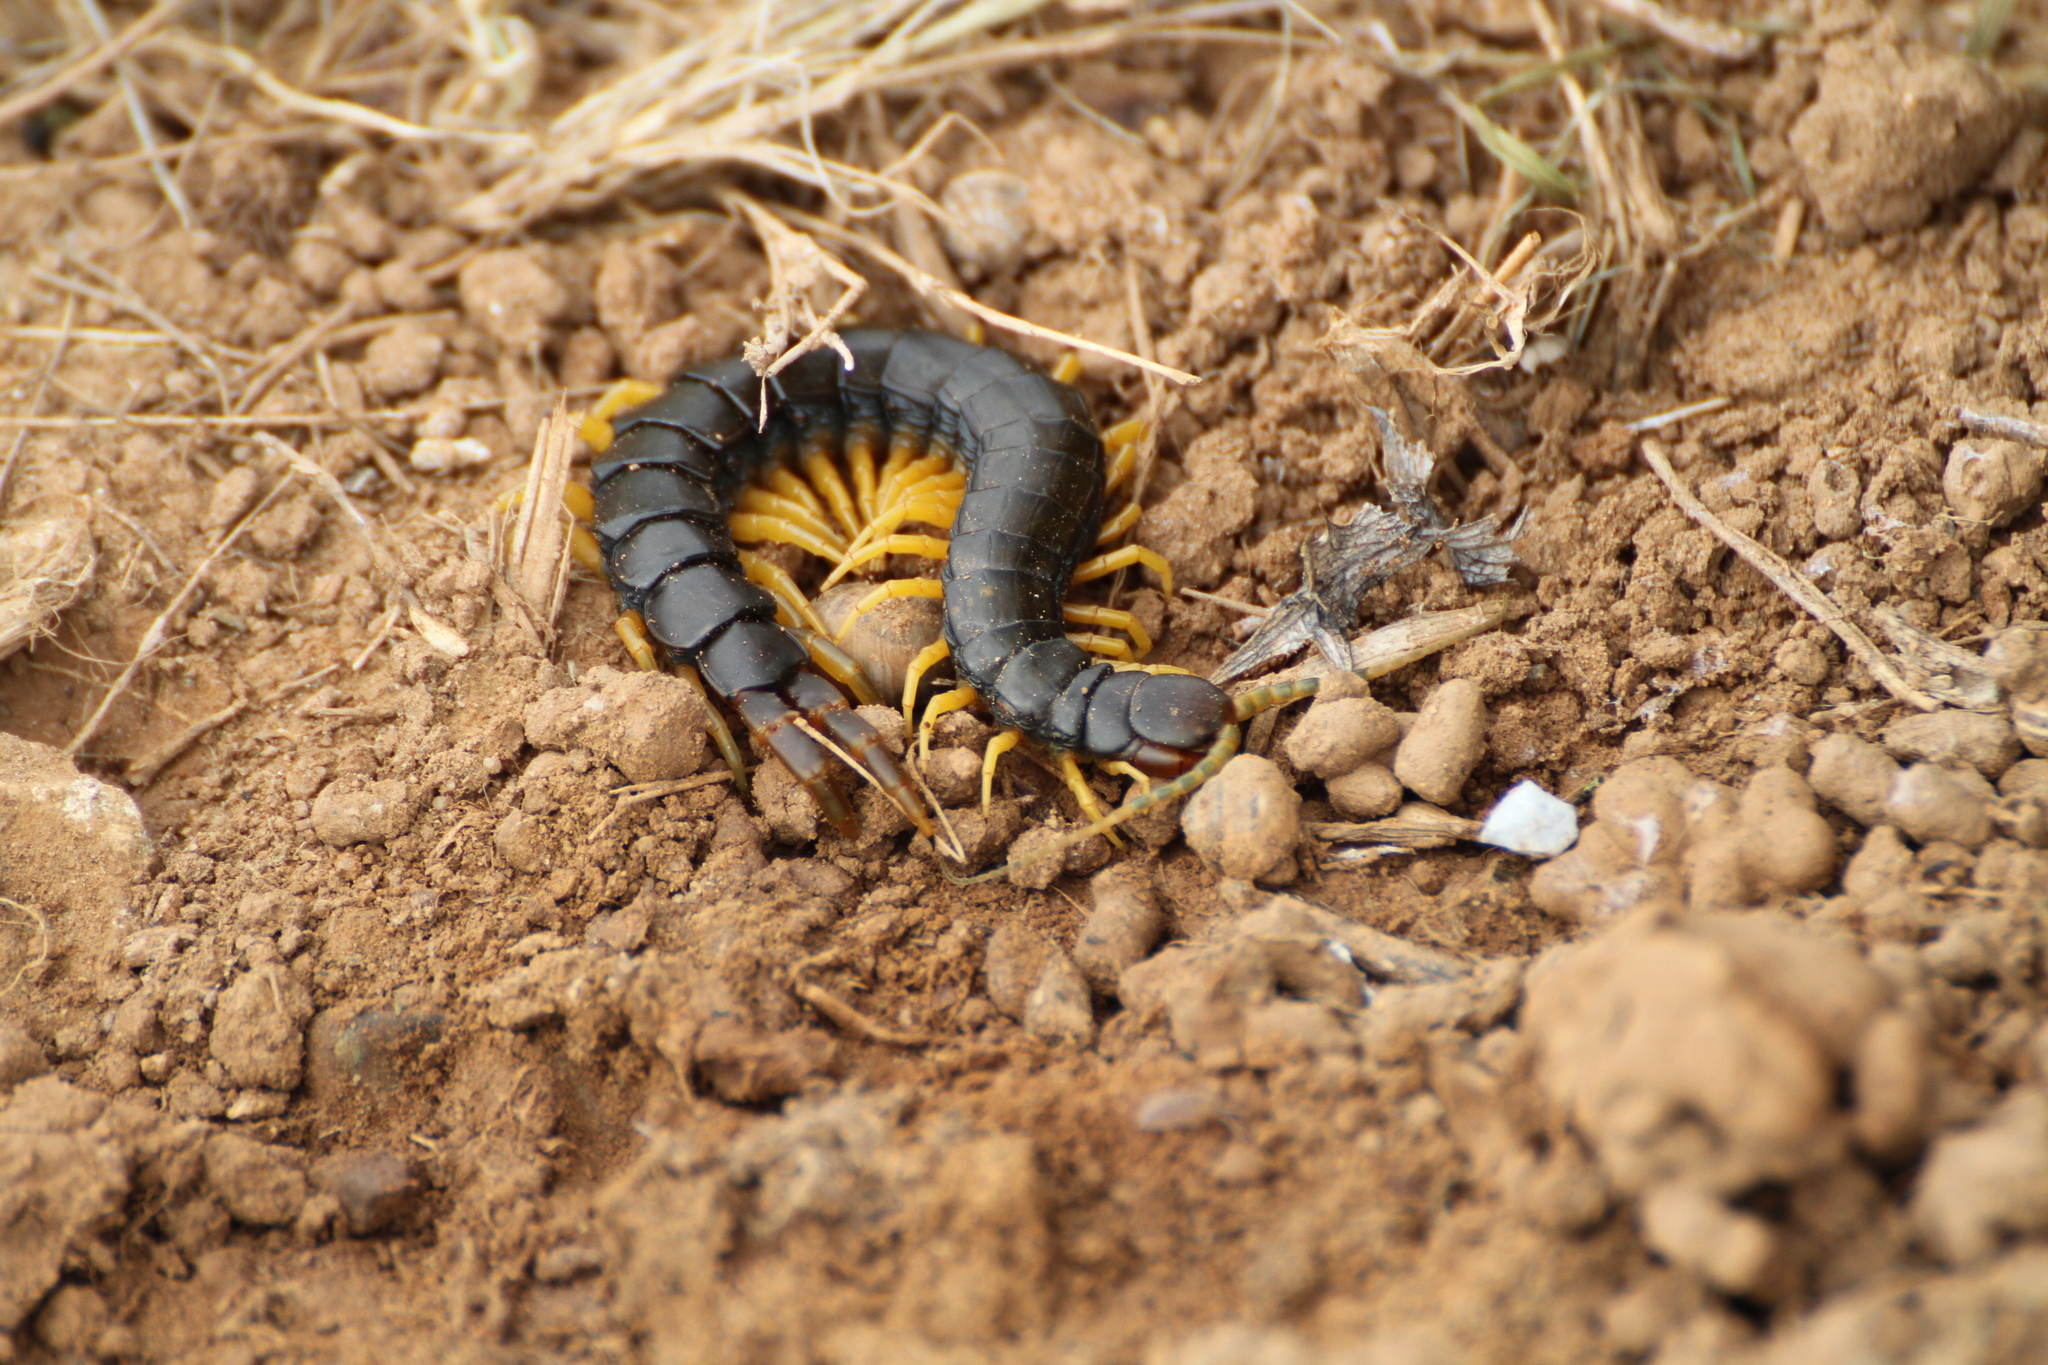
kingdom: Animalia
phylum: Arthropoda
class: Chilopoda
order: Scolopendromorpha
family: Scolopendridae
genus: Scolopendra
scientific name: Scolopendra cingulata
